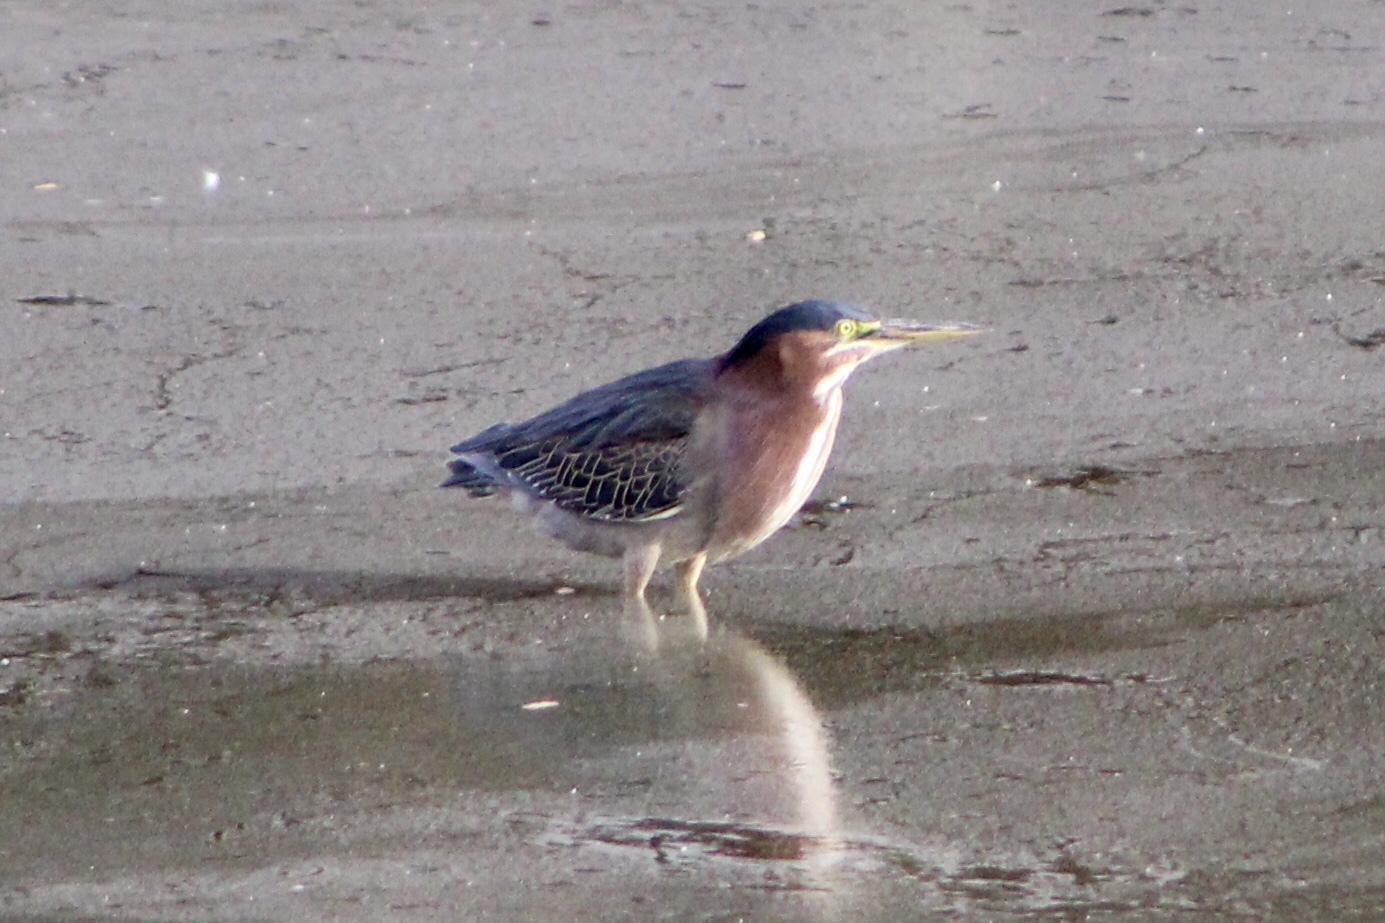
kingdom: Animalia
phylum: Chordata
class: Aves
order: Pelecaniformes
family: Ardeidae
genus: Butorides
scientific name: Butorides virescens
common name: Green heron
